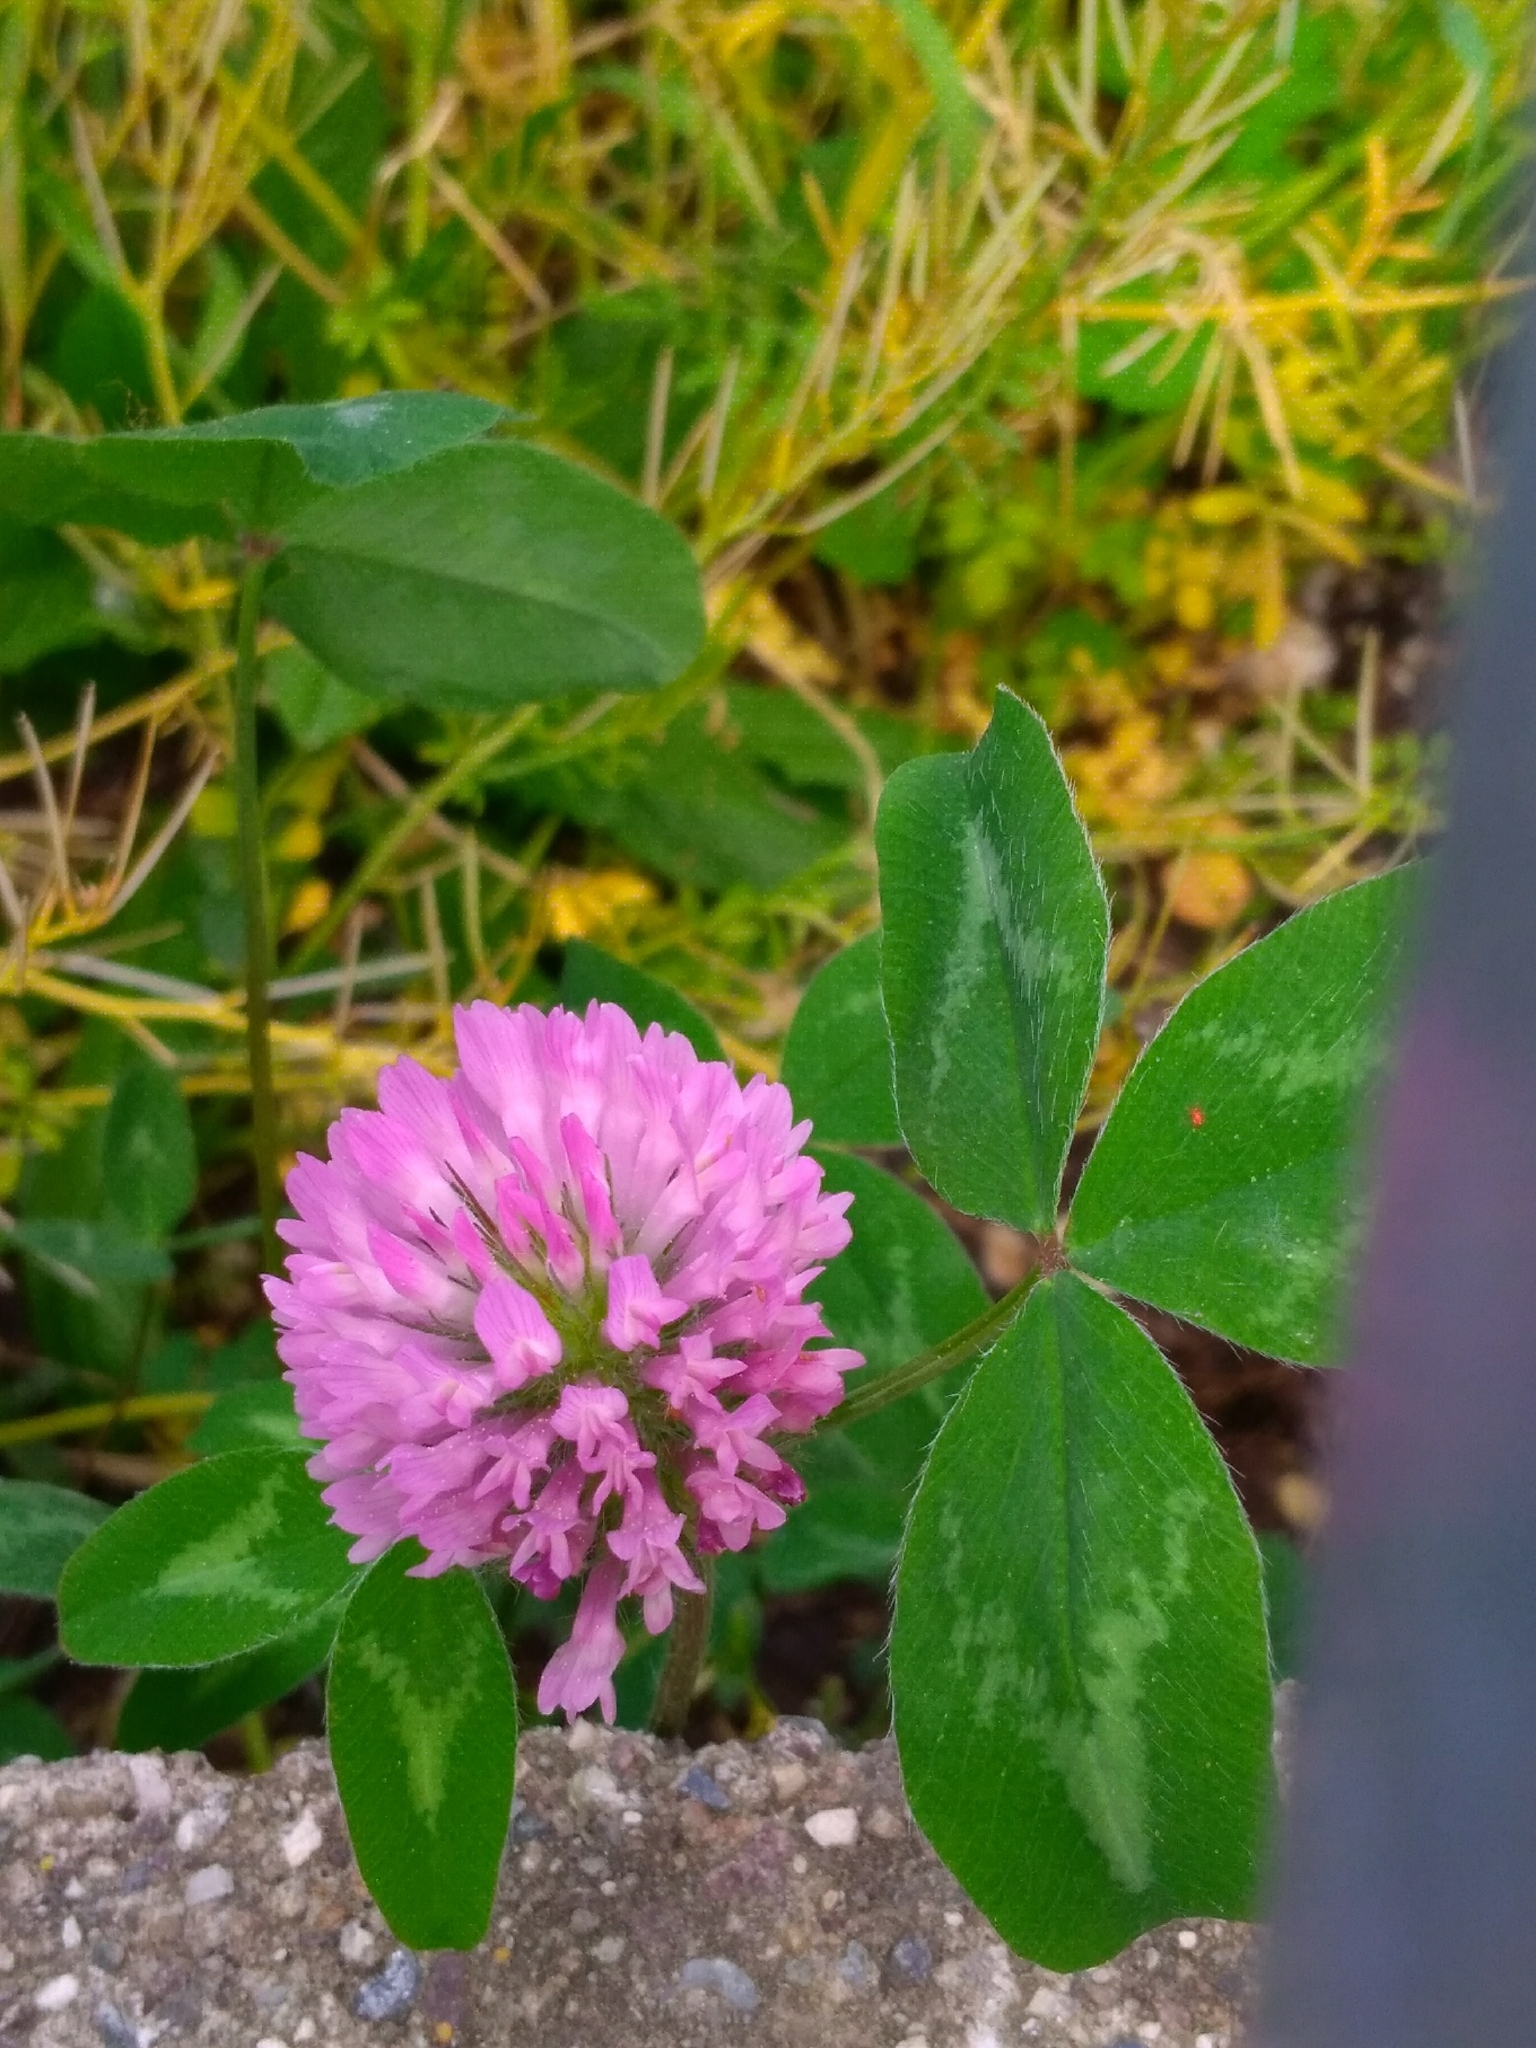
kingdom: Plantae
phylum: Tracheophyta
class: Magnoliopsida
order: Fabales
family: Fabaceae
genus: Trifolium
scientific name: Trifolium pratense
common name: Red clover
